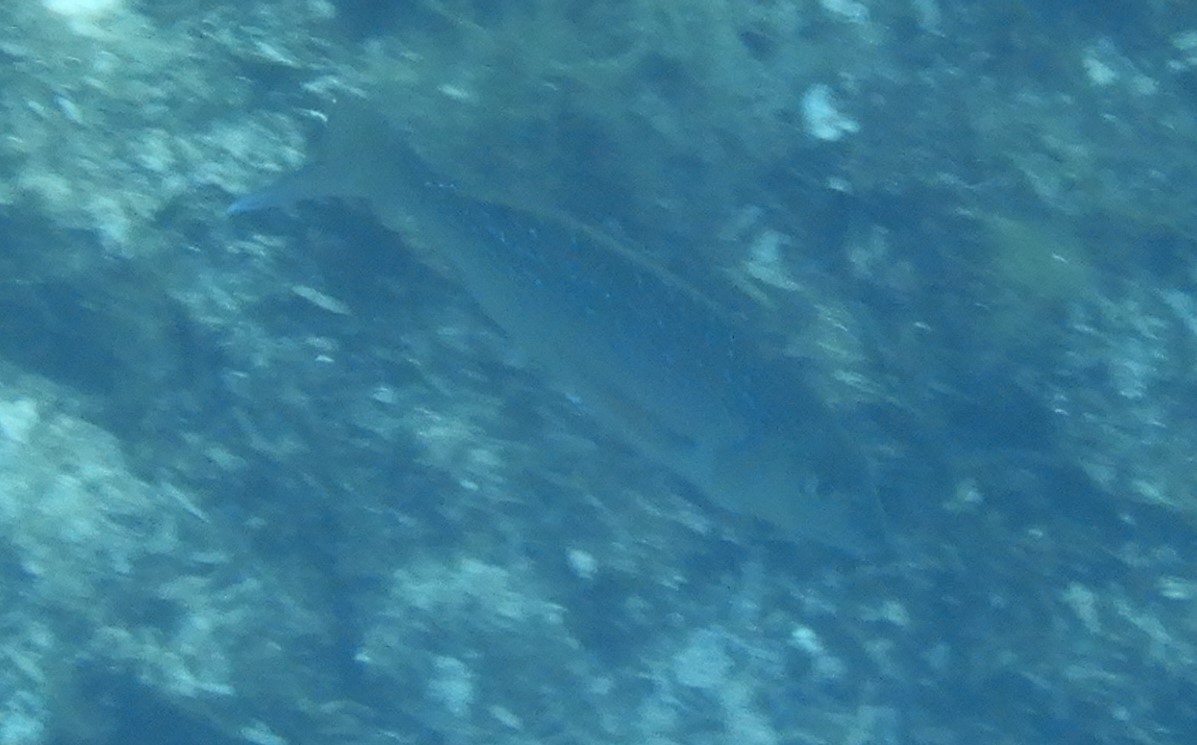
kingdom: Animalia
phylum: Chordata
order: Perciformes
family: Sparidae
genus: Dentex
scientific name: Dentex dentex
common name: Dentex
